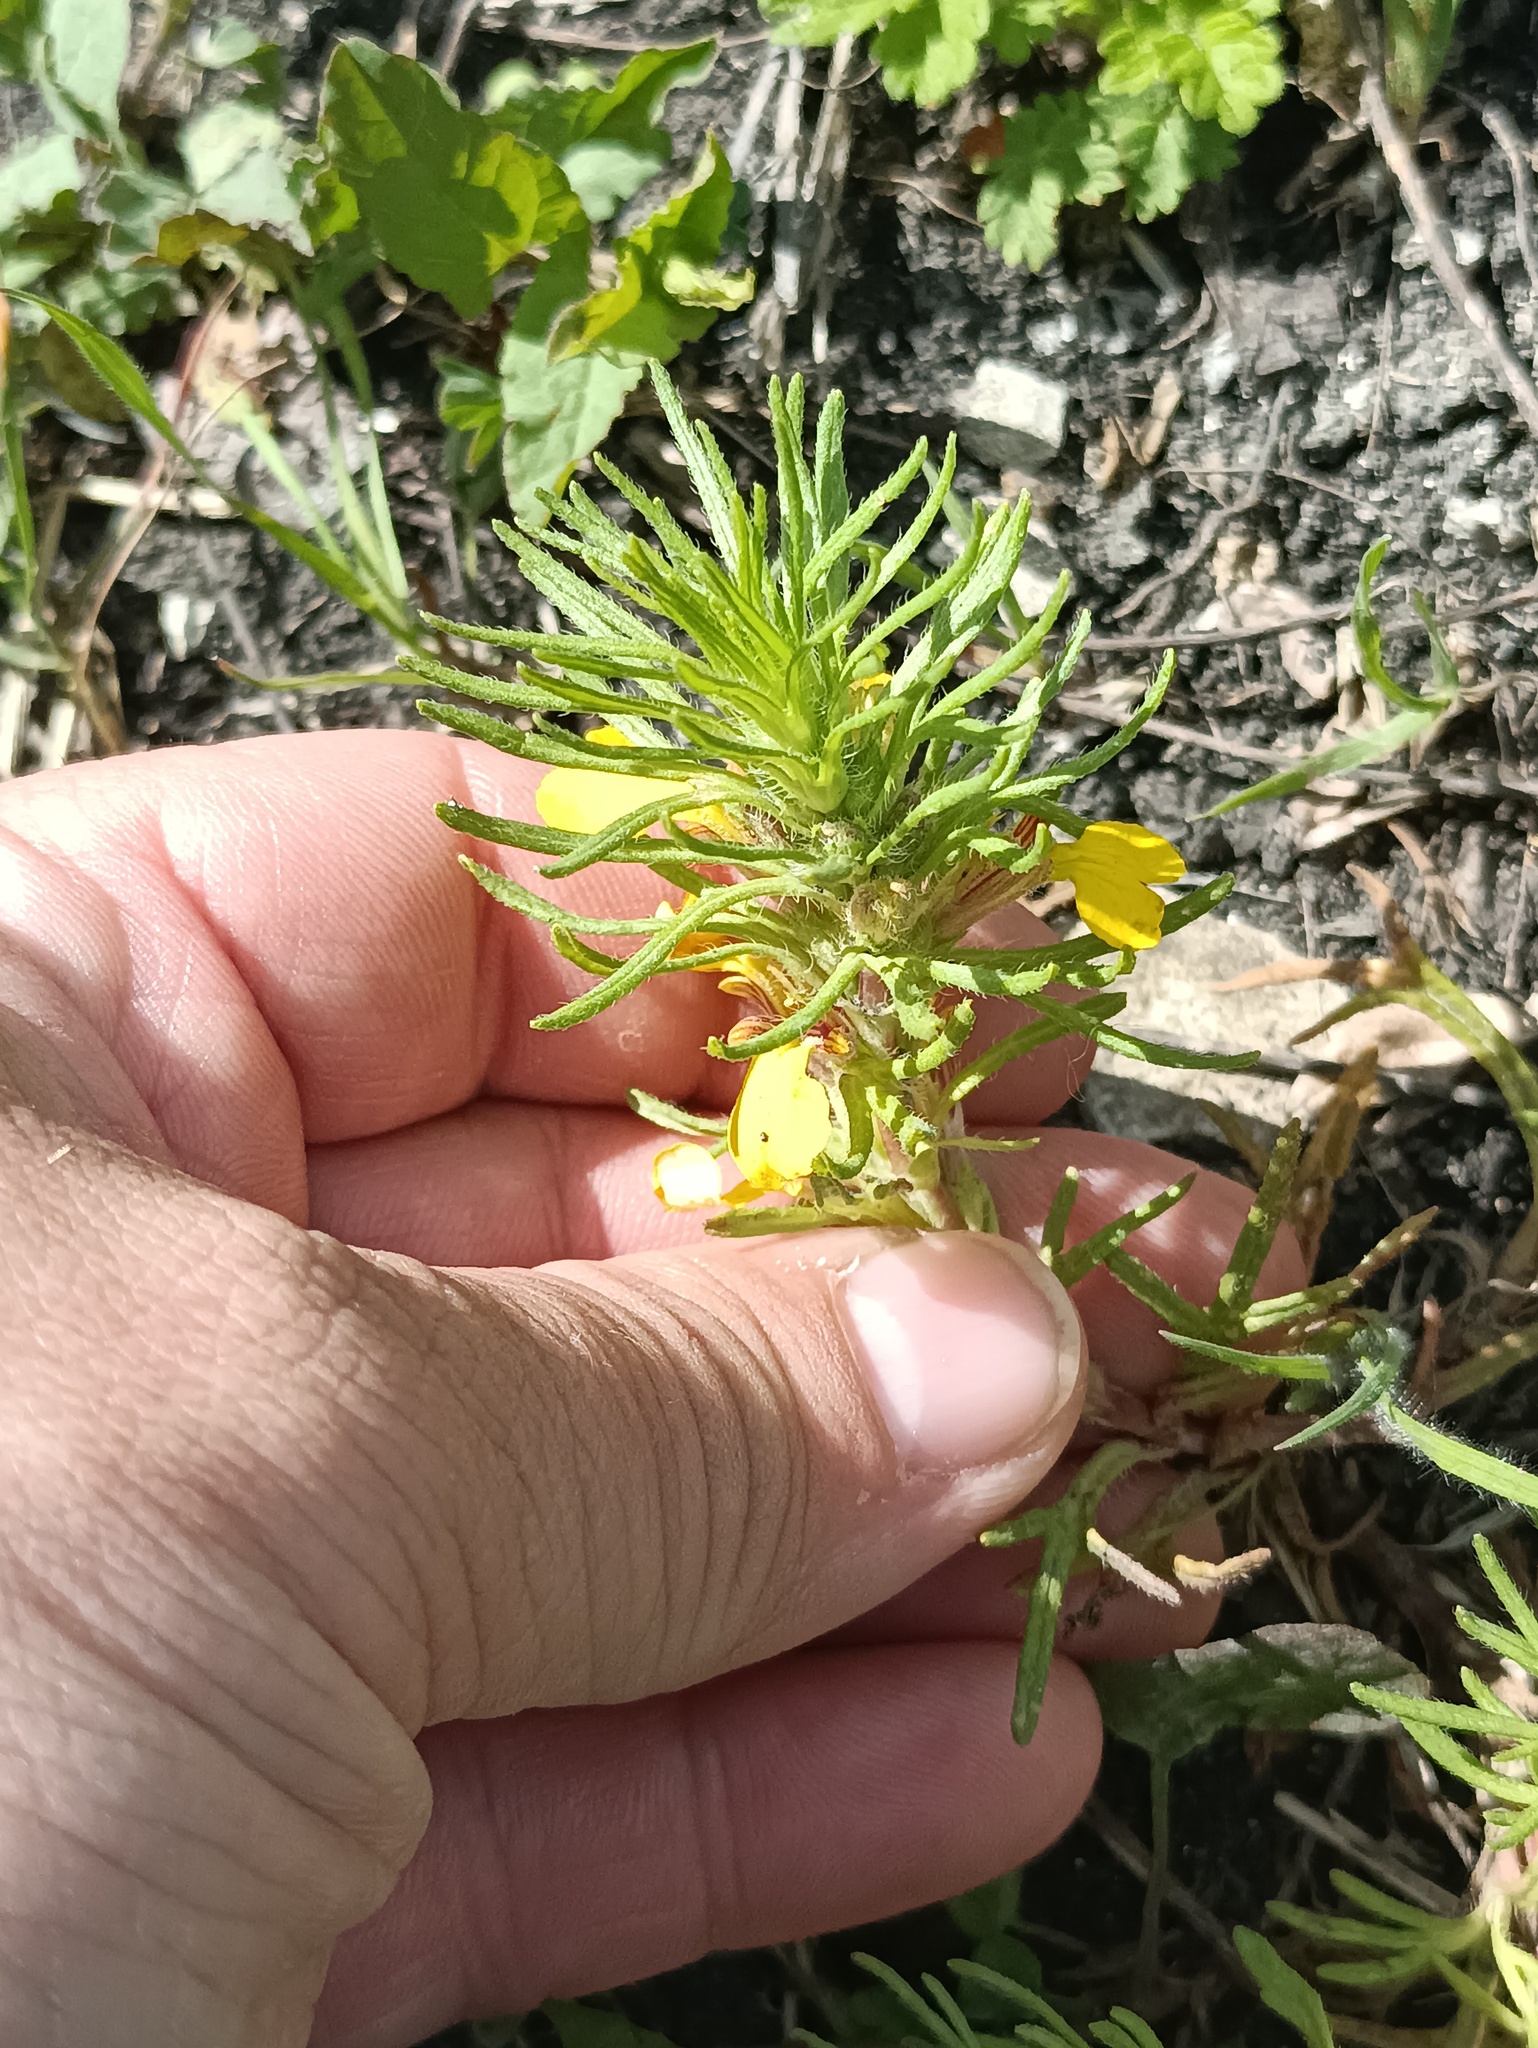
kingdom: Plantae
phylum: Tracheophyta
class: Magnoliopsida
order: Lamiales
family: Lamiaceae
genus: Ajuga
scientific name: Ajuga chamaepitys
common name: Ground-pine
